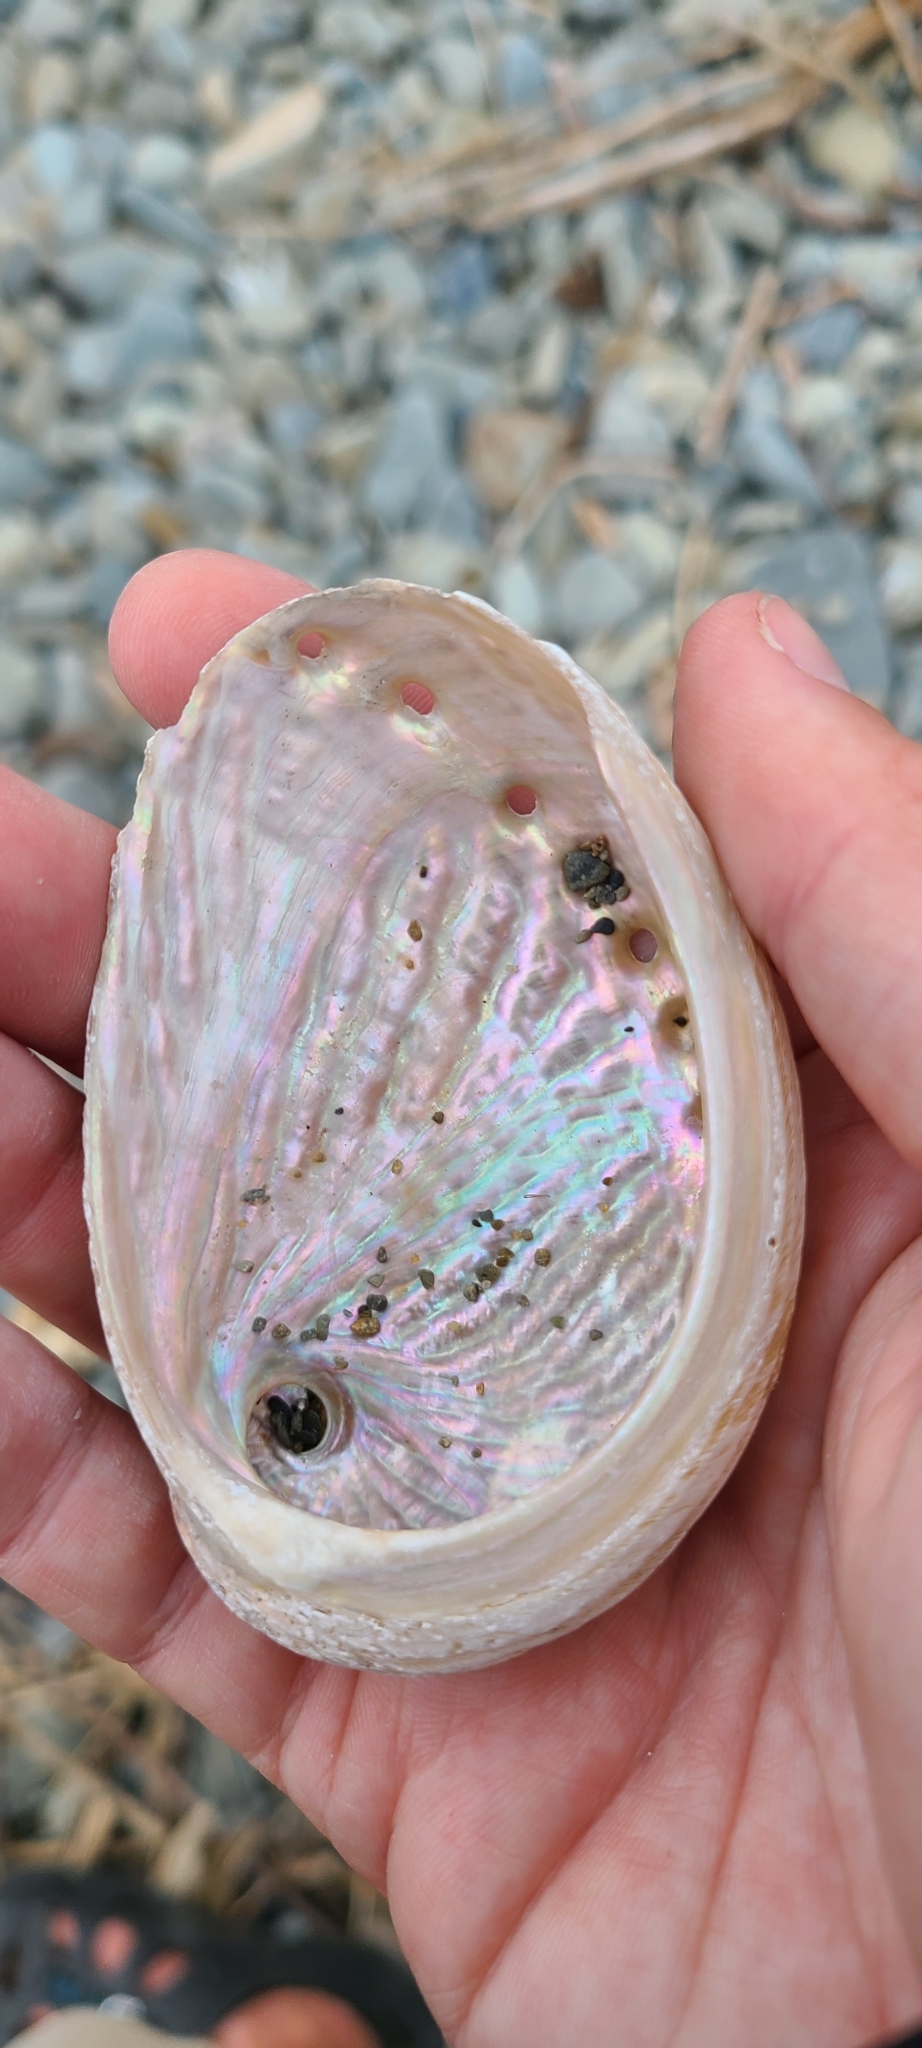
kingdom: Animalia
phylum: Mollusca
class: Gastropoda
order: Lepetellida
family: Haliotidae
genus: Haliotis
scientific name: Haliotis australis
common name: Silver abalone
